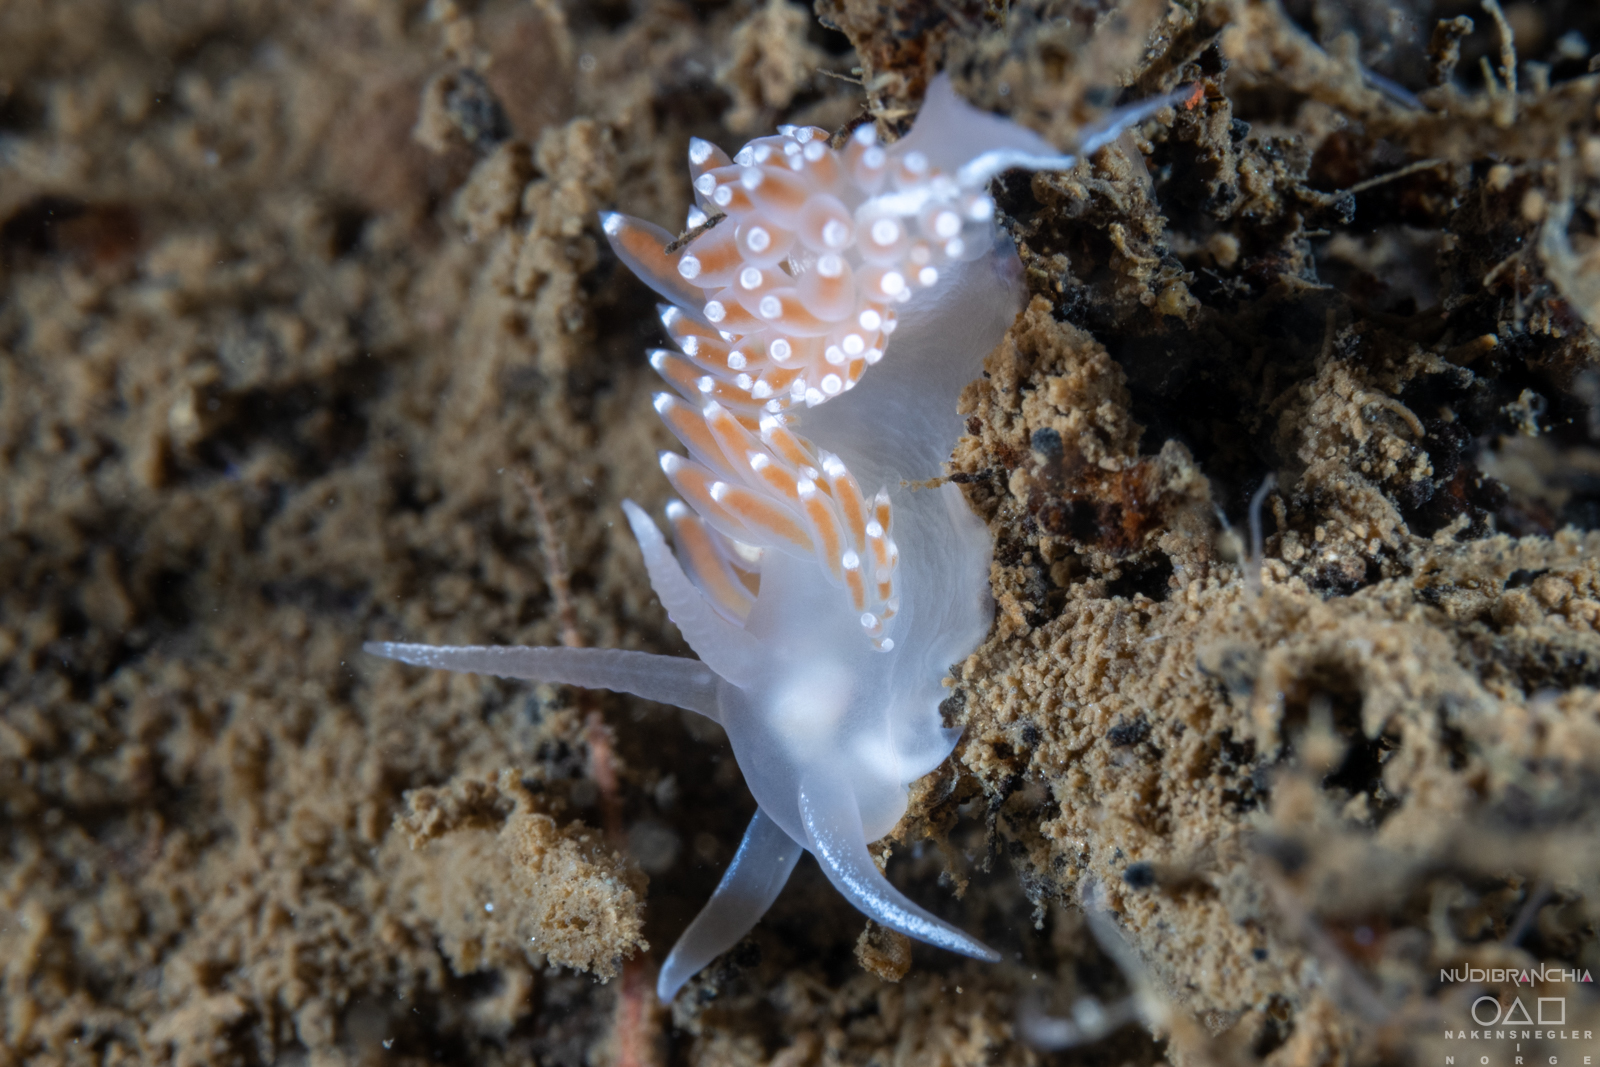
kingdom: Animalia
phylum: Mollusca
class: Gastropoda
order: Nudibranchia
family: Coryphellidae
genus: Coryphella
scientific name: Coryphella verrucosa
